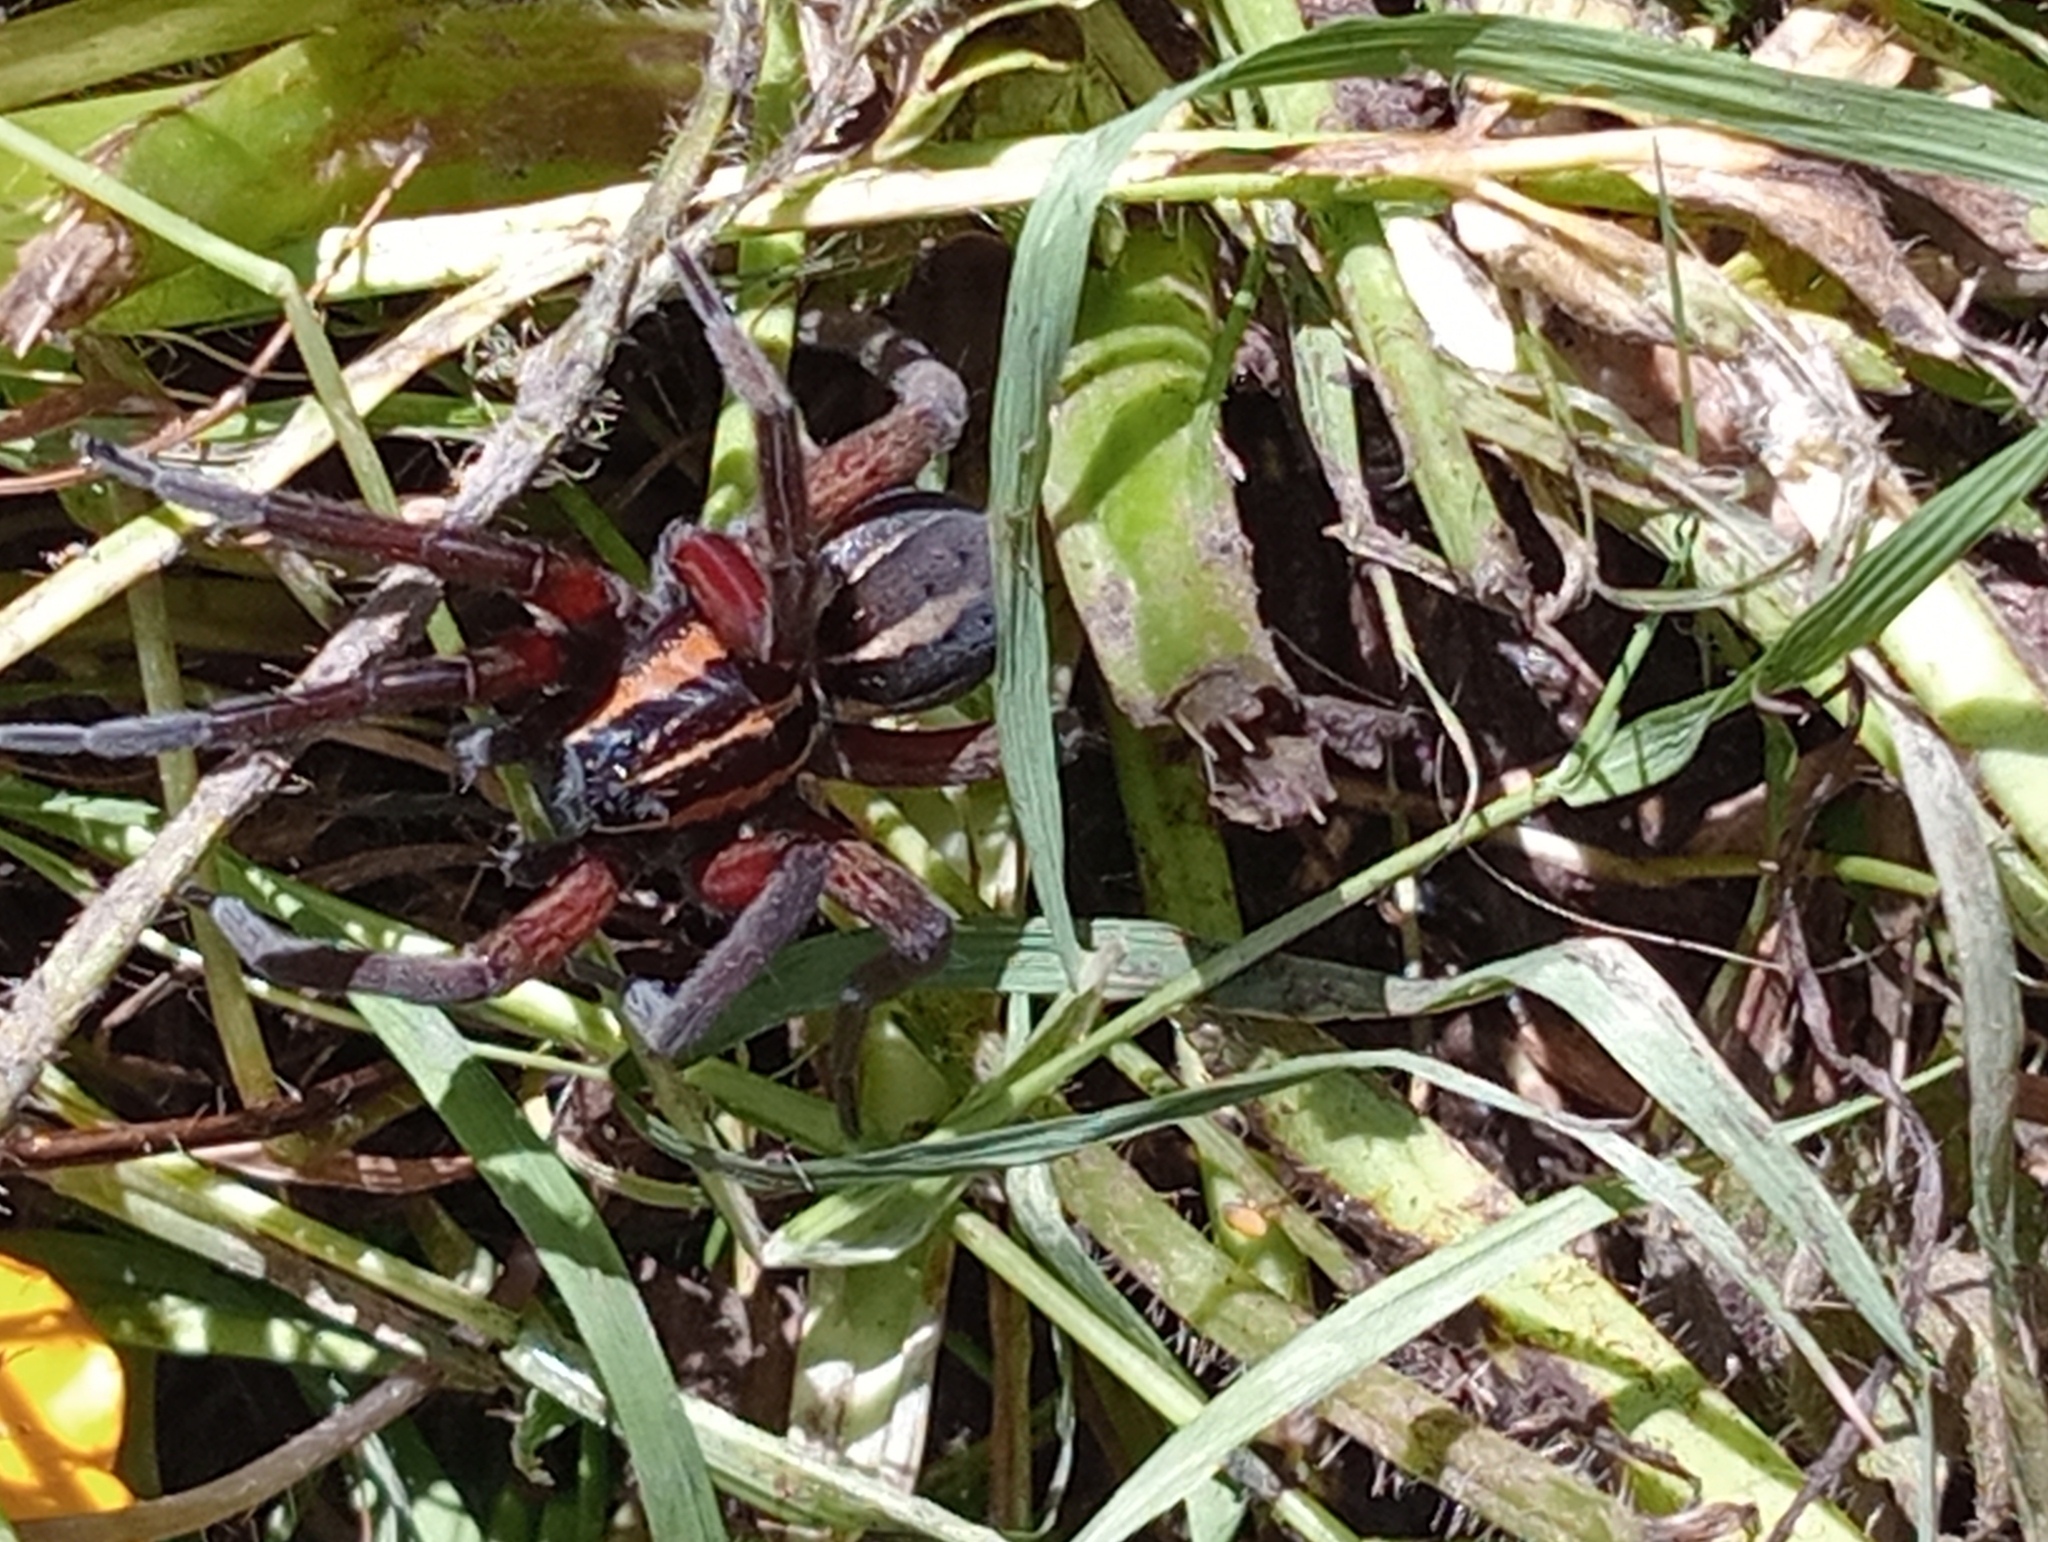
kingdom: Animalia
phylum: Arthropoda
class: Arachnida
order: Araneae
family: Pisauridae
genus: Dolomedes
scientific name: Dolomedes minor
